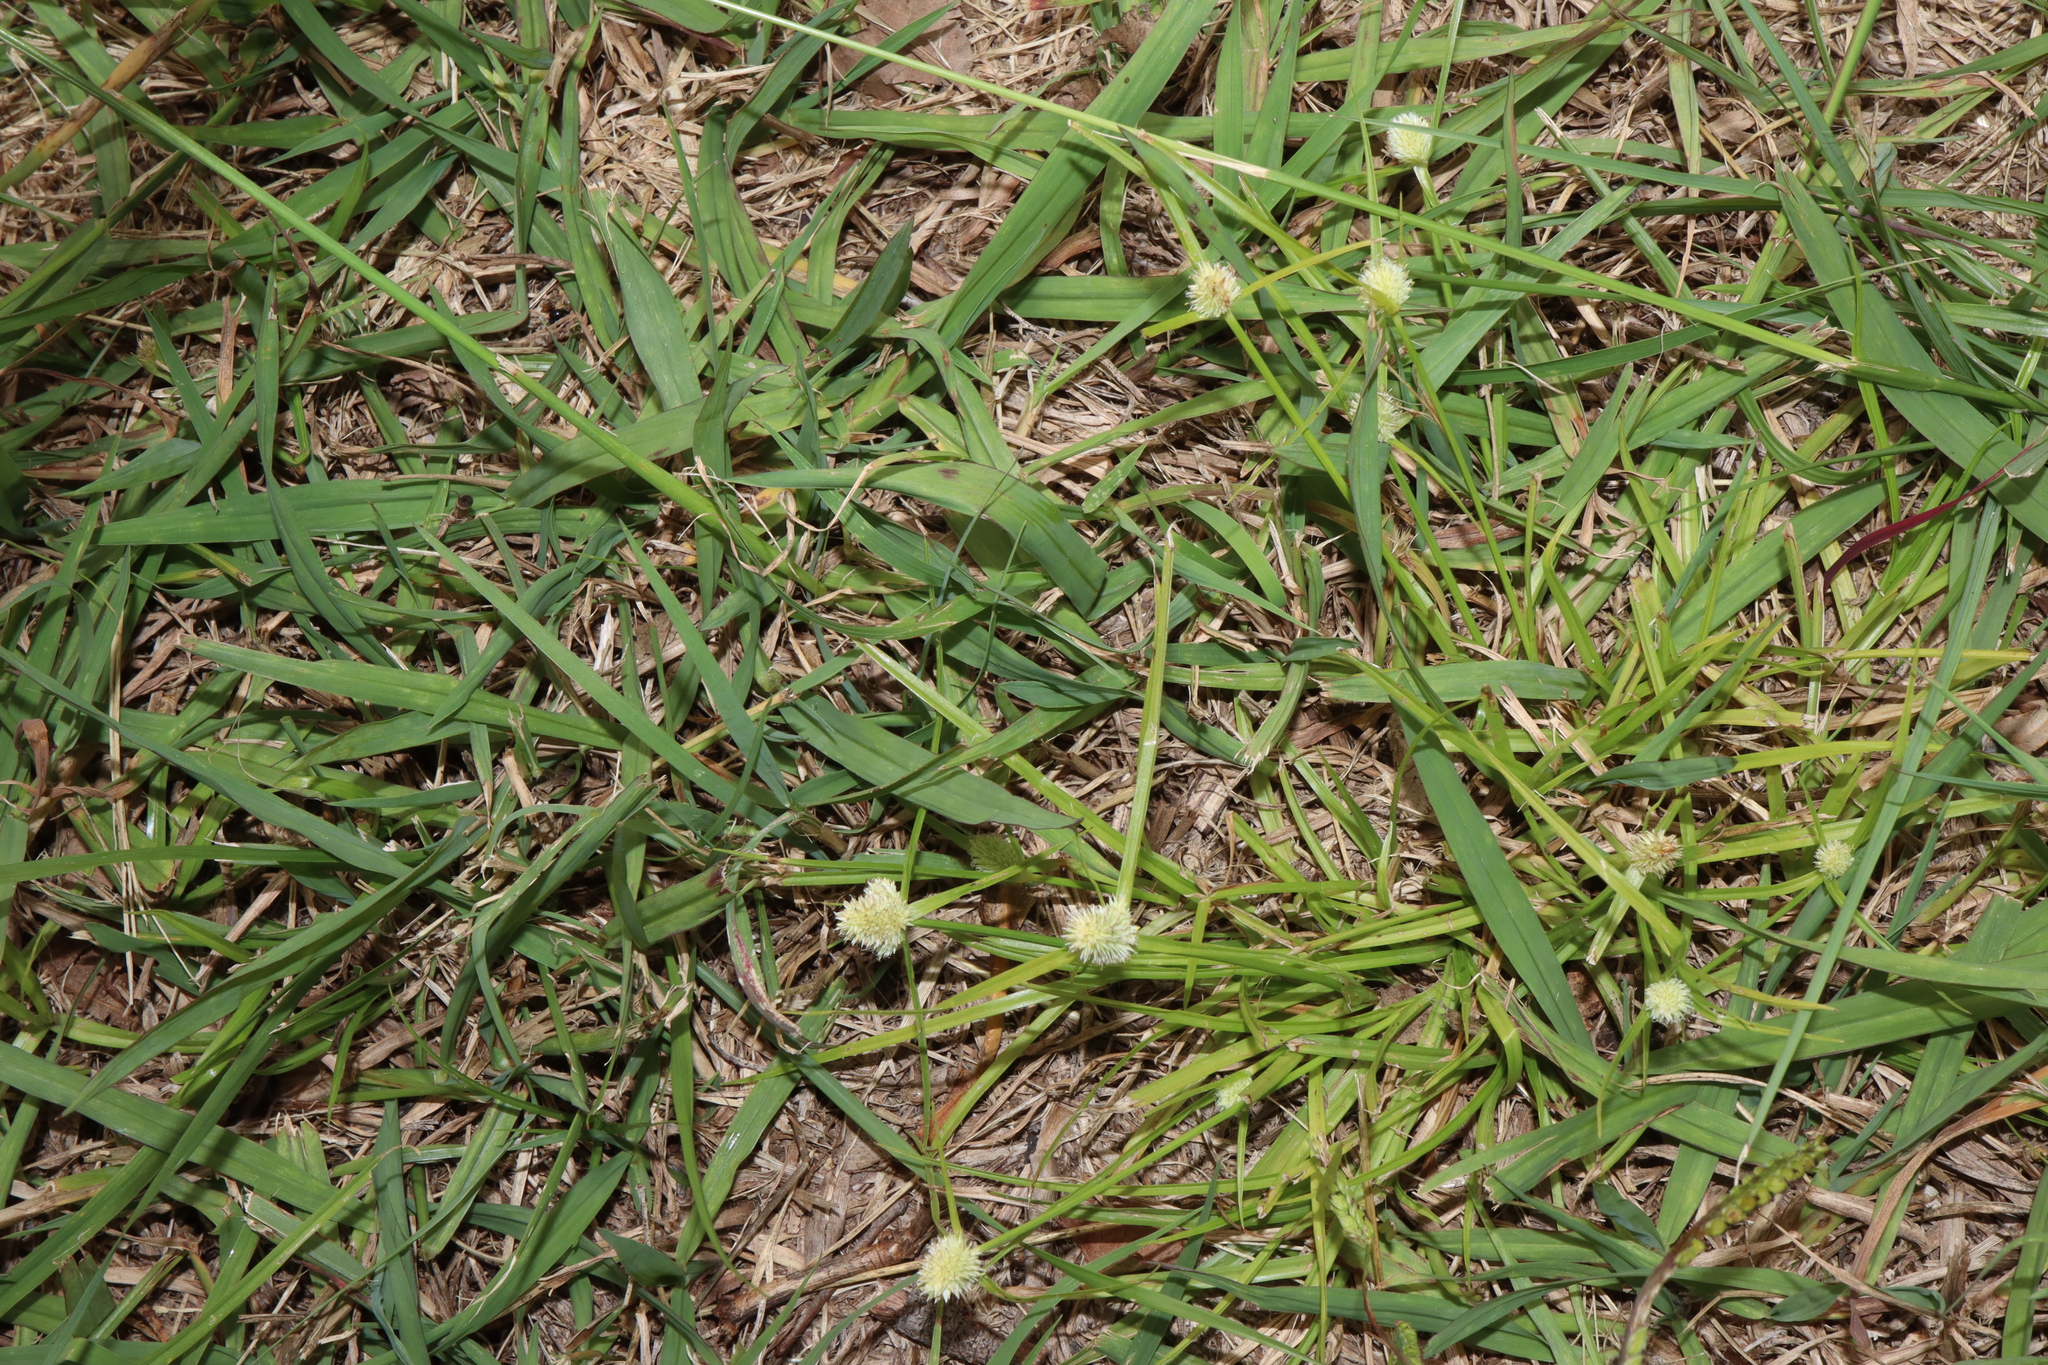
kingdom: Plantae
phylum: Tracheophyta
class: Liliopsida
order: Poales
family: Cyperaceae
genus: Cyperus
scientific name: Cyperus sesquiflorus
